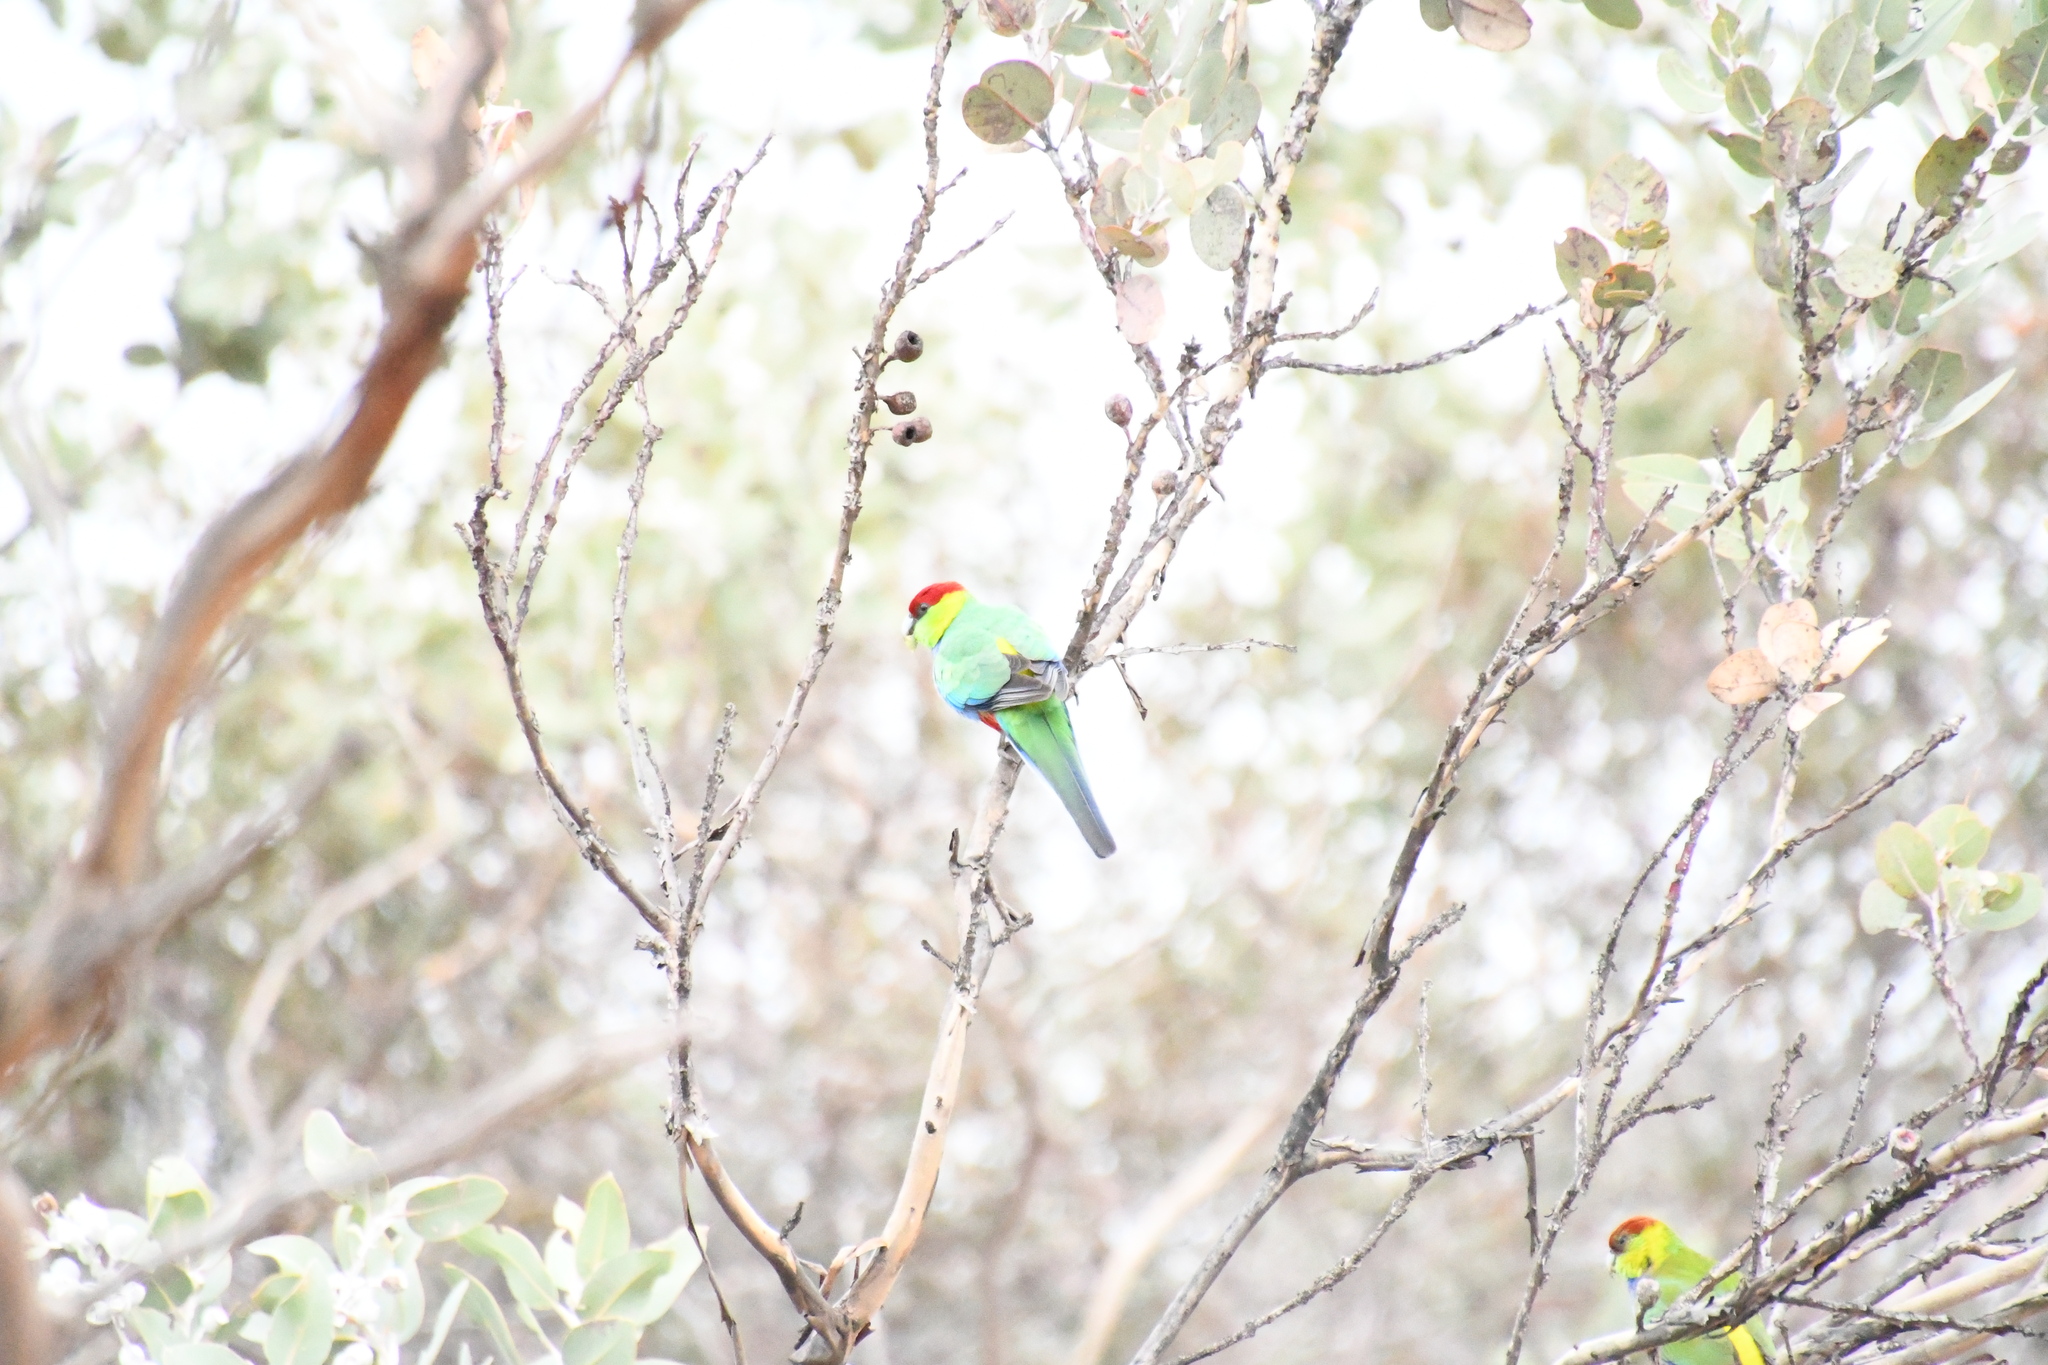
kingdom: Animalia
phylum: Chordata
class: Aves
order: Psittaciformes
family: Psittacidae
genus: Purpureicephalus
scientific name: Purpureicephalus spurius
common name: Red-capped parrot
